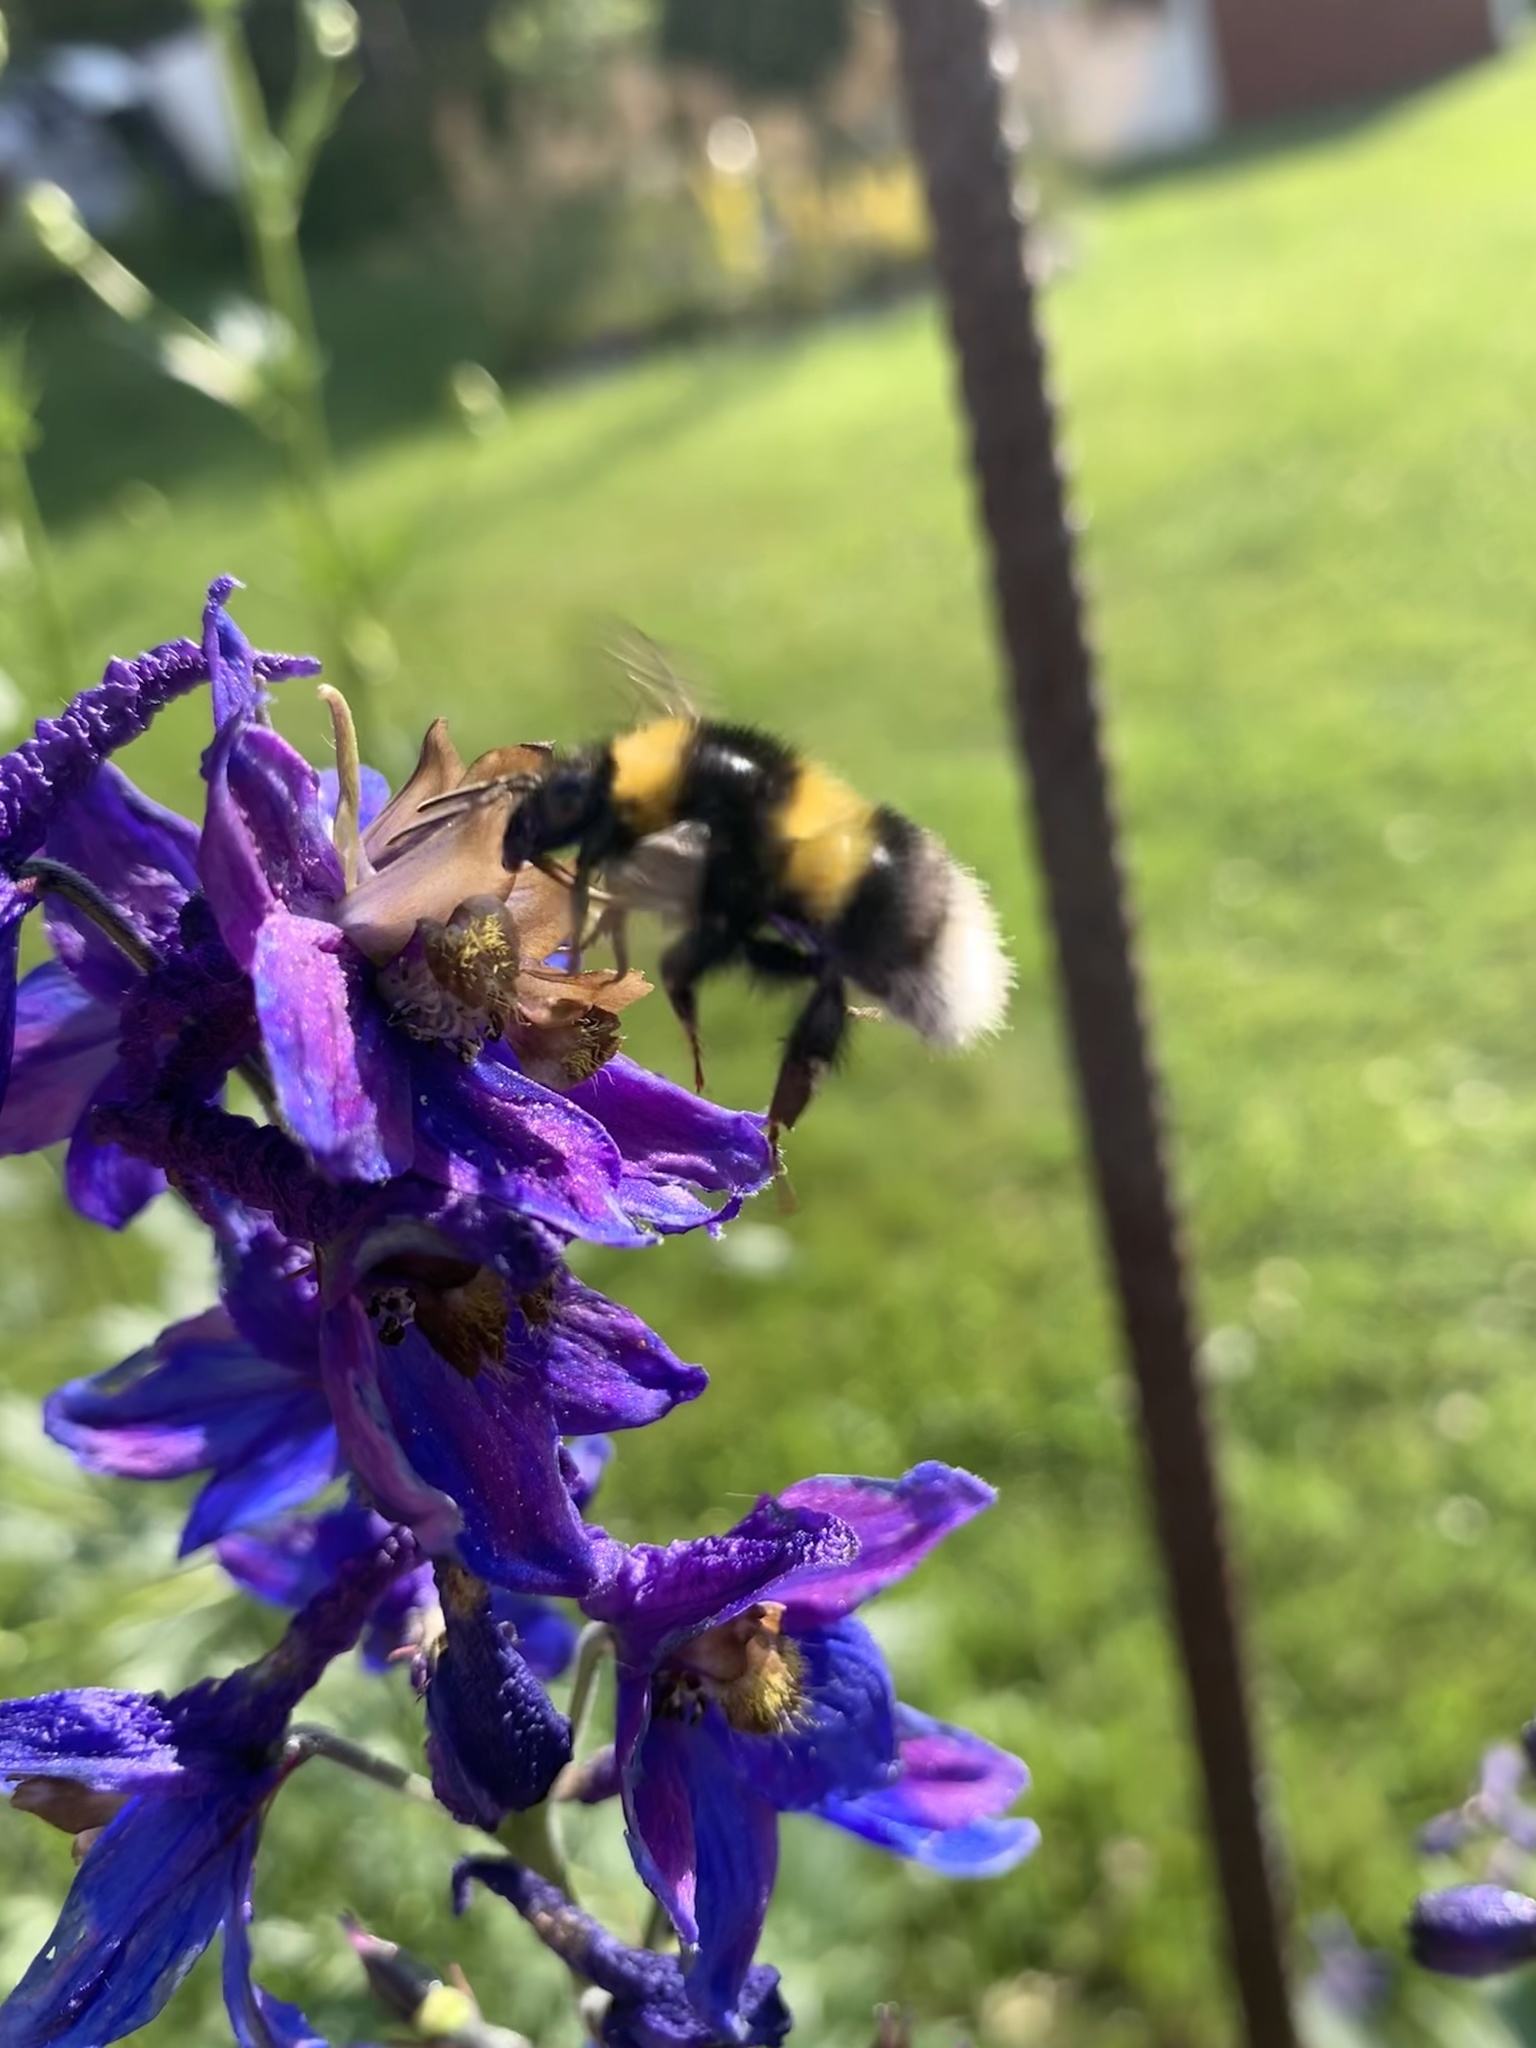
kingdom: Animalia
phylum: Arthropoda
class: Insecta
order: Hymenoptera
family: Apidae
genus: Bombus
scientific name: Bombus hortorum
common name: Garden bumblebee
